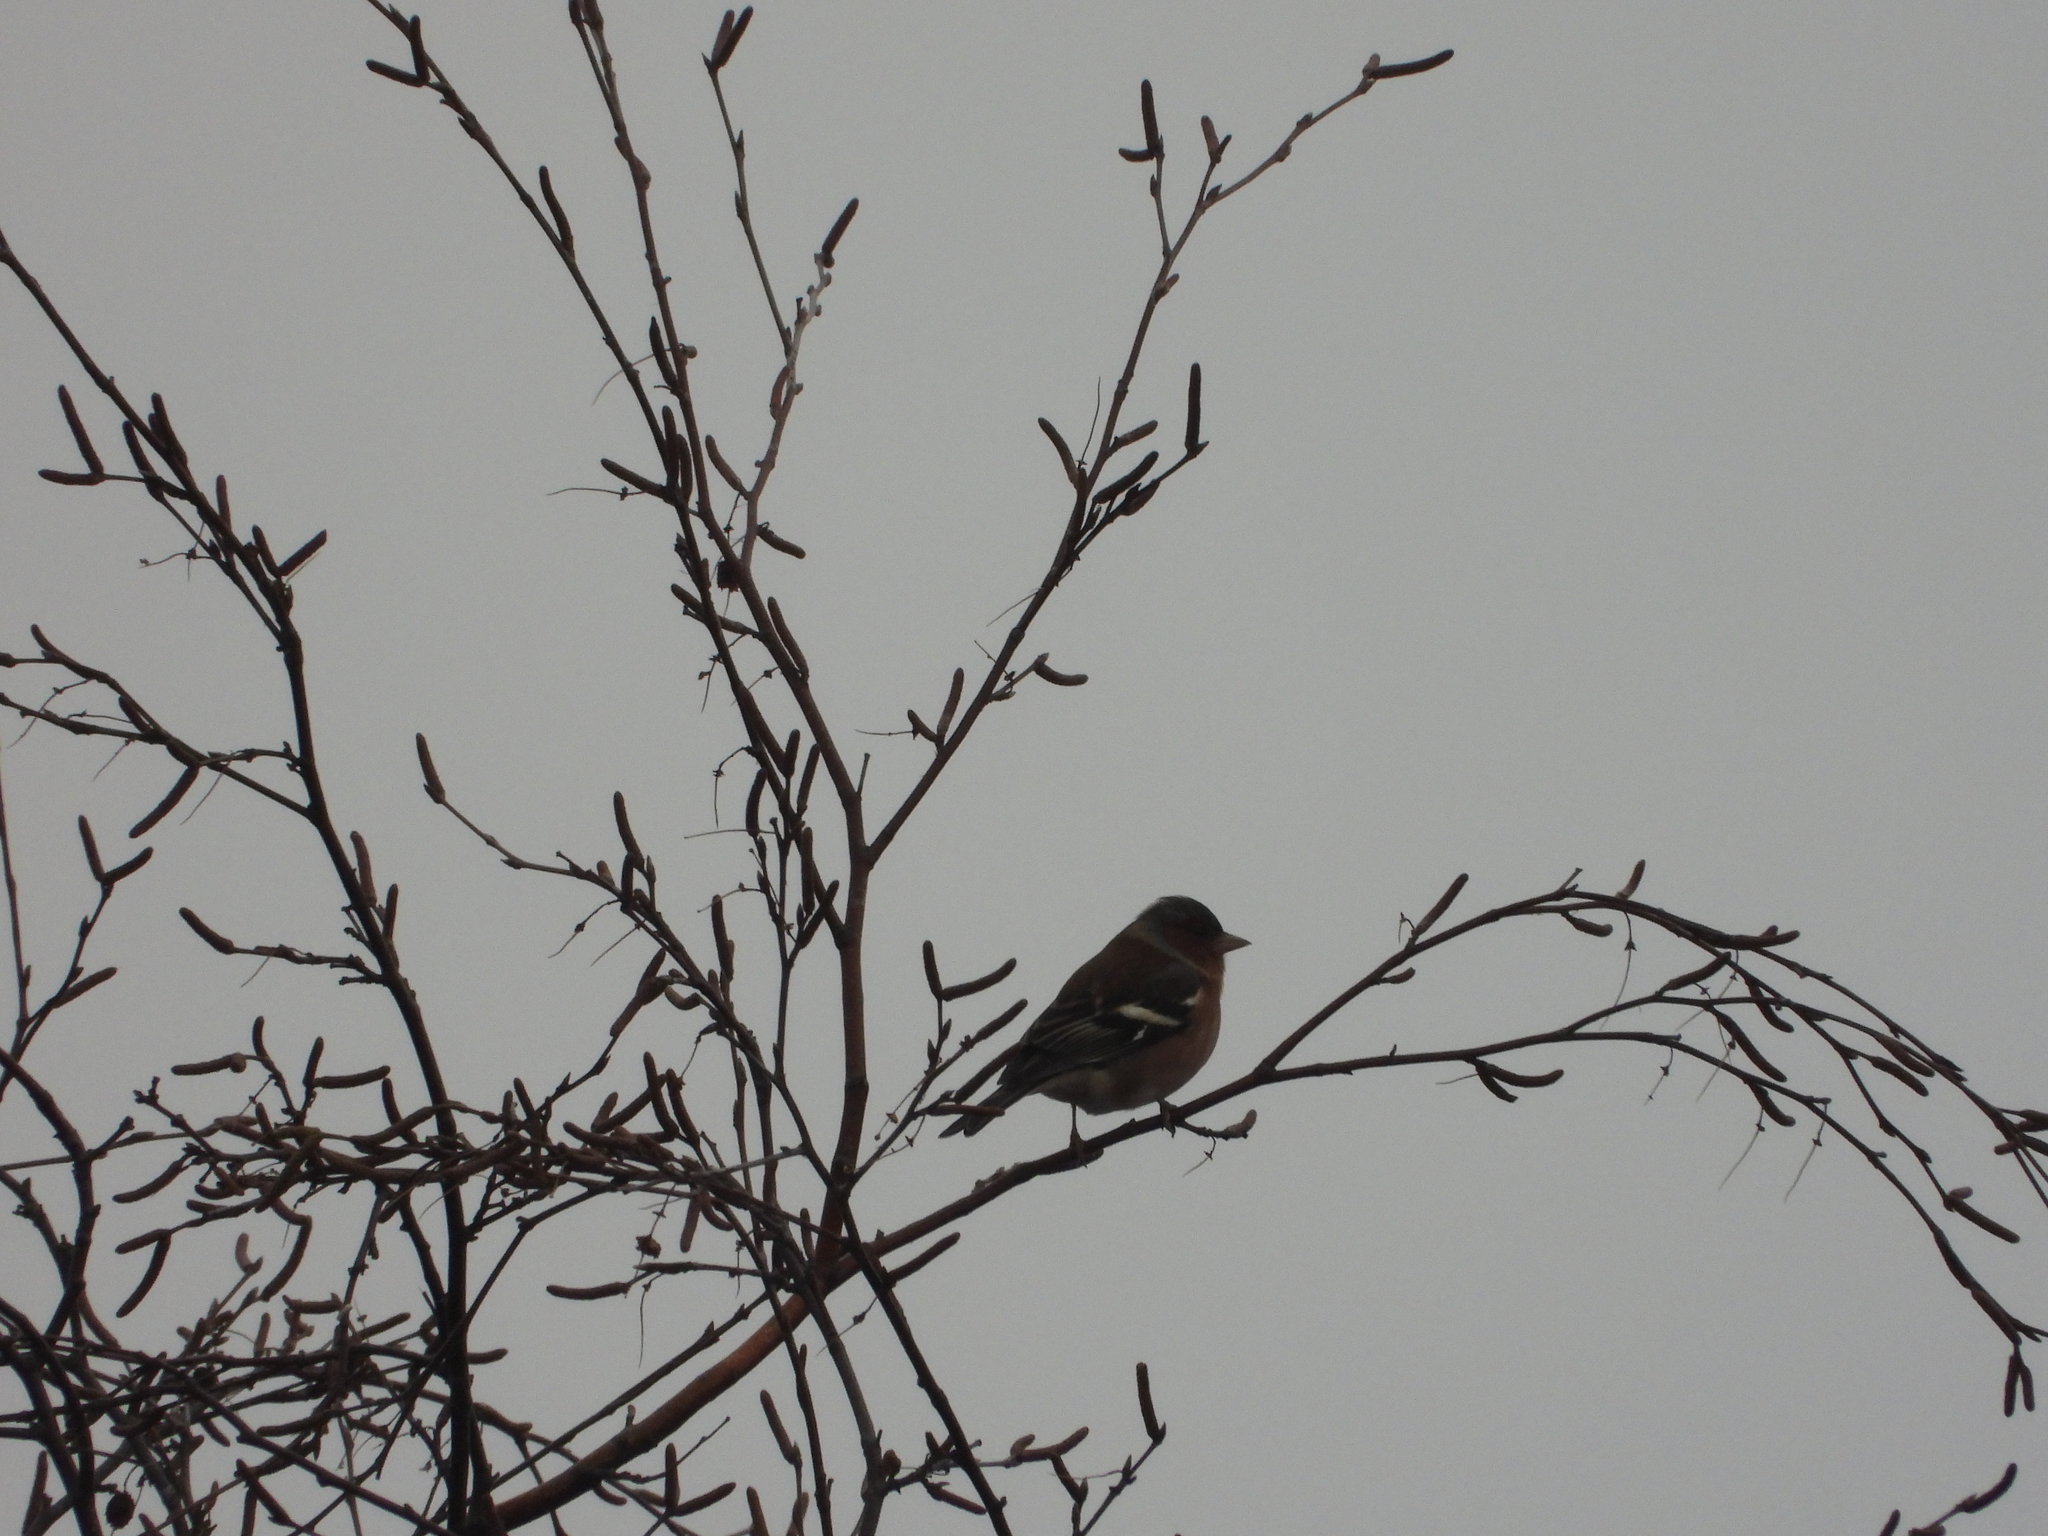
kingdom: Animalia
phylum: Chordata
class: Aves
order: Passeriformes
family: Fringillidae
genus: Fringilla
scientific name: Fringilla coelebs
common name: Common chaffinch
